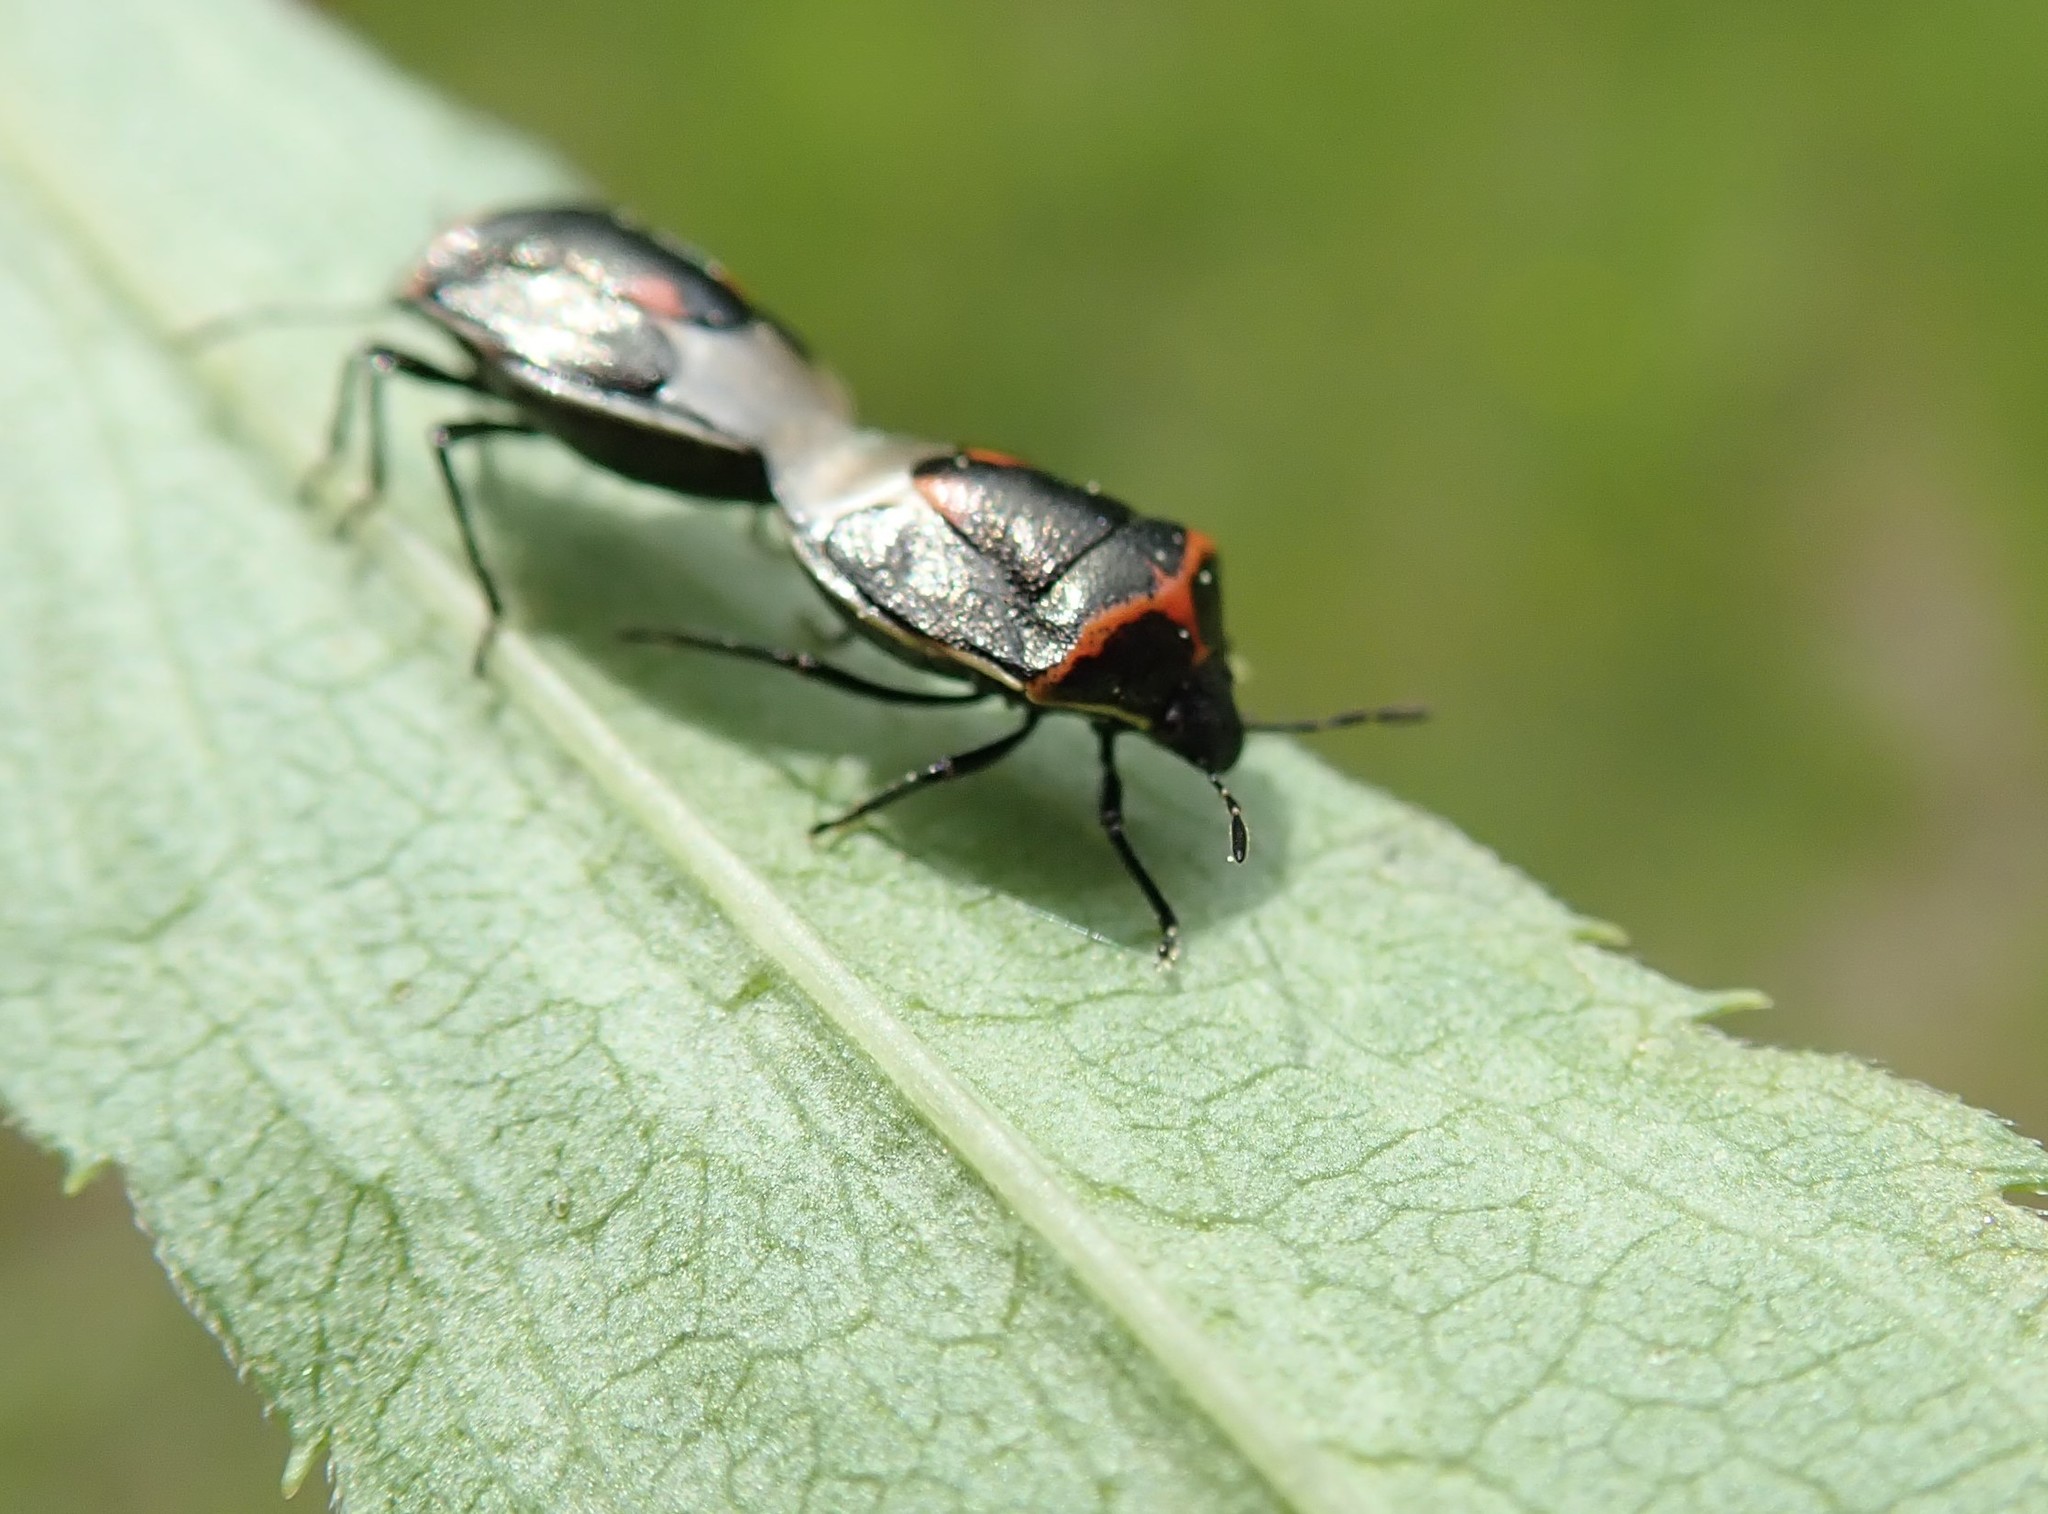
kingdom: Animalia
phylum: Arthropoda
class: Insecta
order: Hemiptera
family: Pentatomidae
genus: Cosmopepla
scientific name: Cosmopepla lintneriana
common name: Twice-stabbed stink bug
